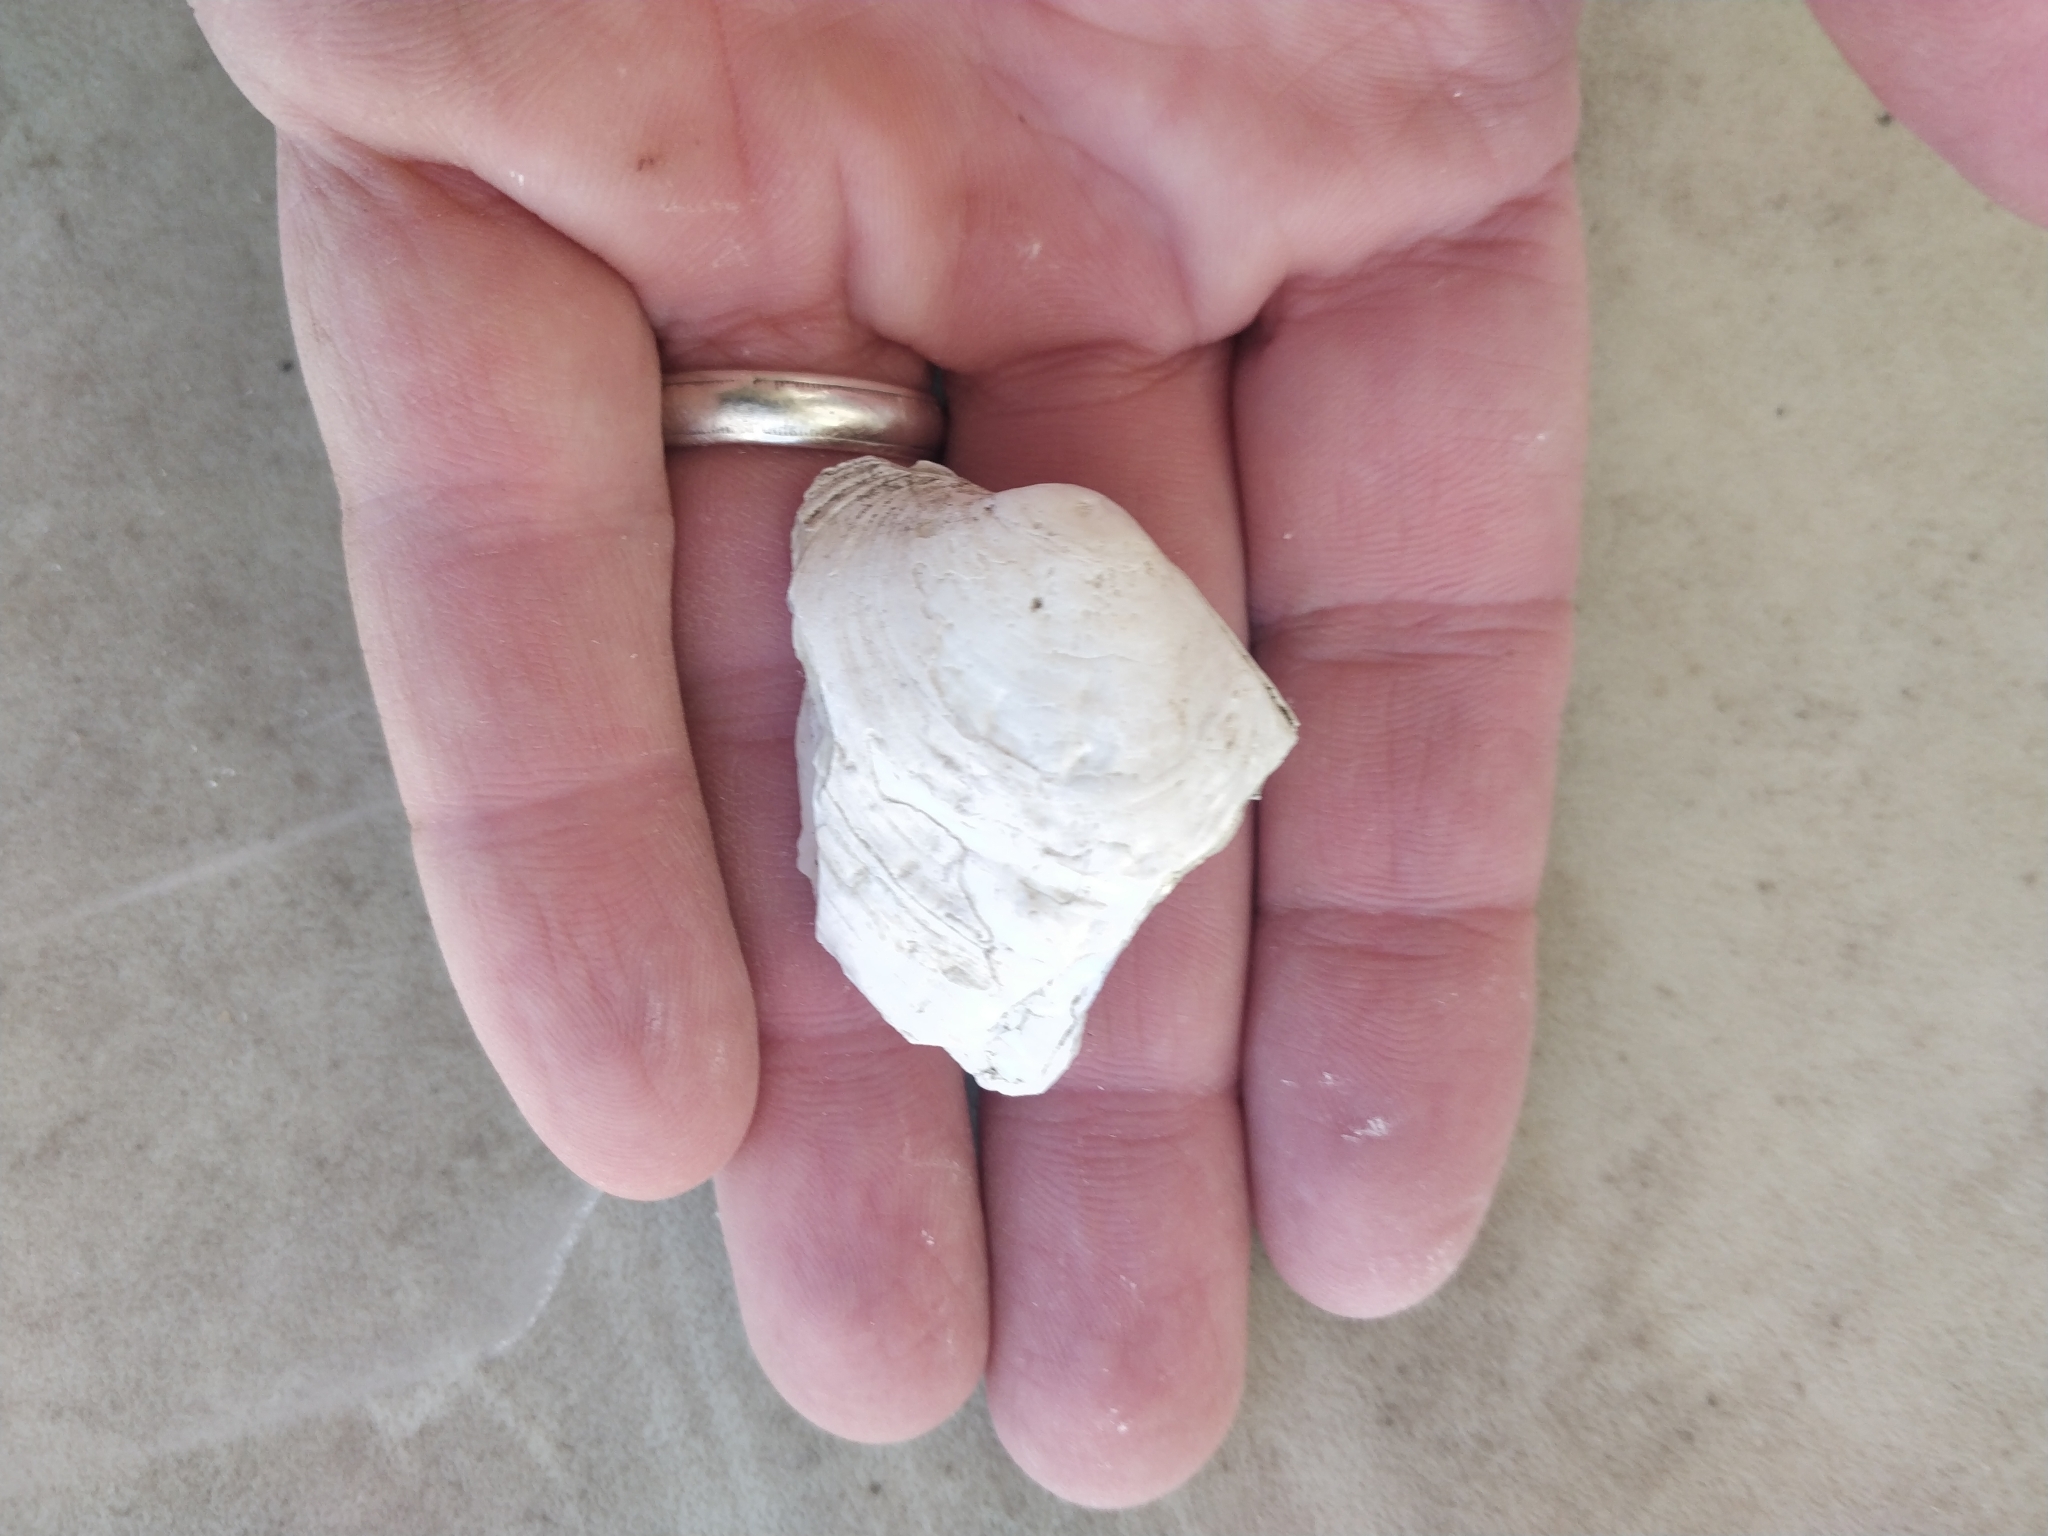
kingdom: Animalia
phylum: Mollusca
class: Bivalvia
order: Unionida
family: Unionidae
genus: Amblema
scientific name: Amblema plicata
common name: Threeridge
